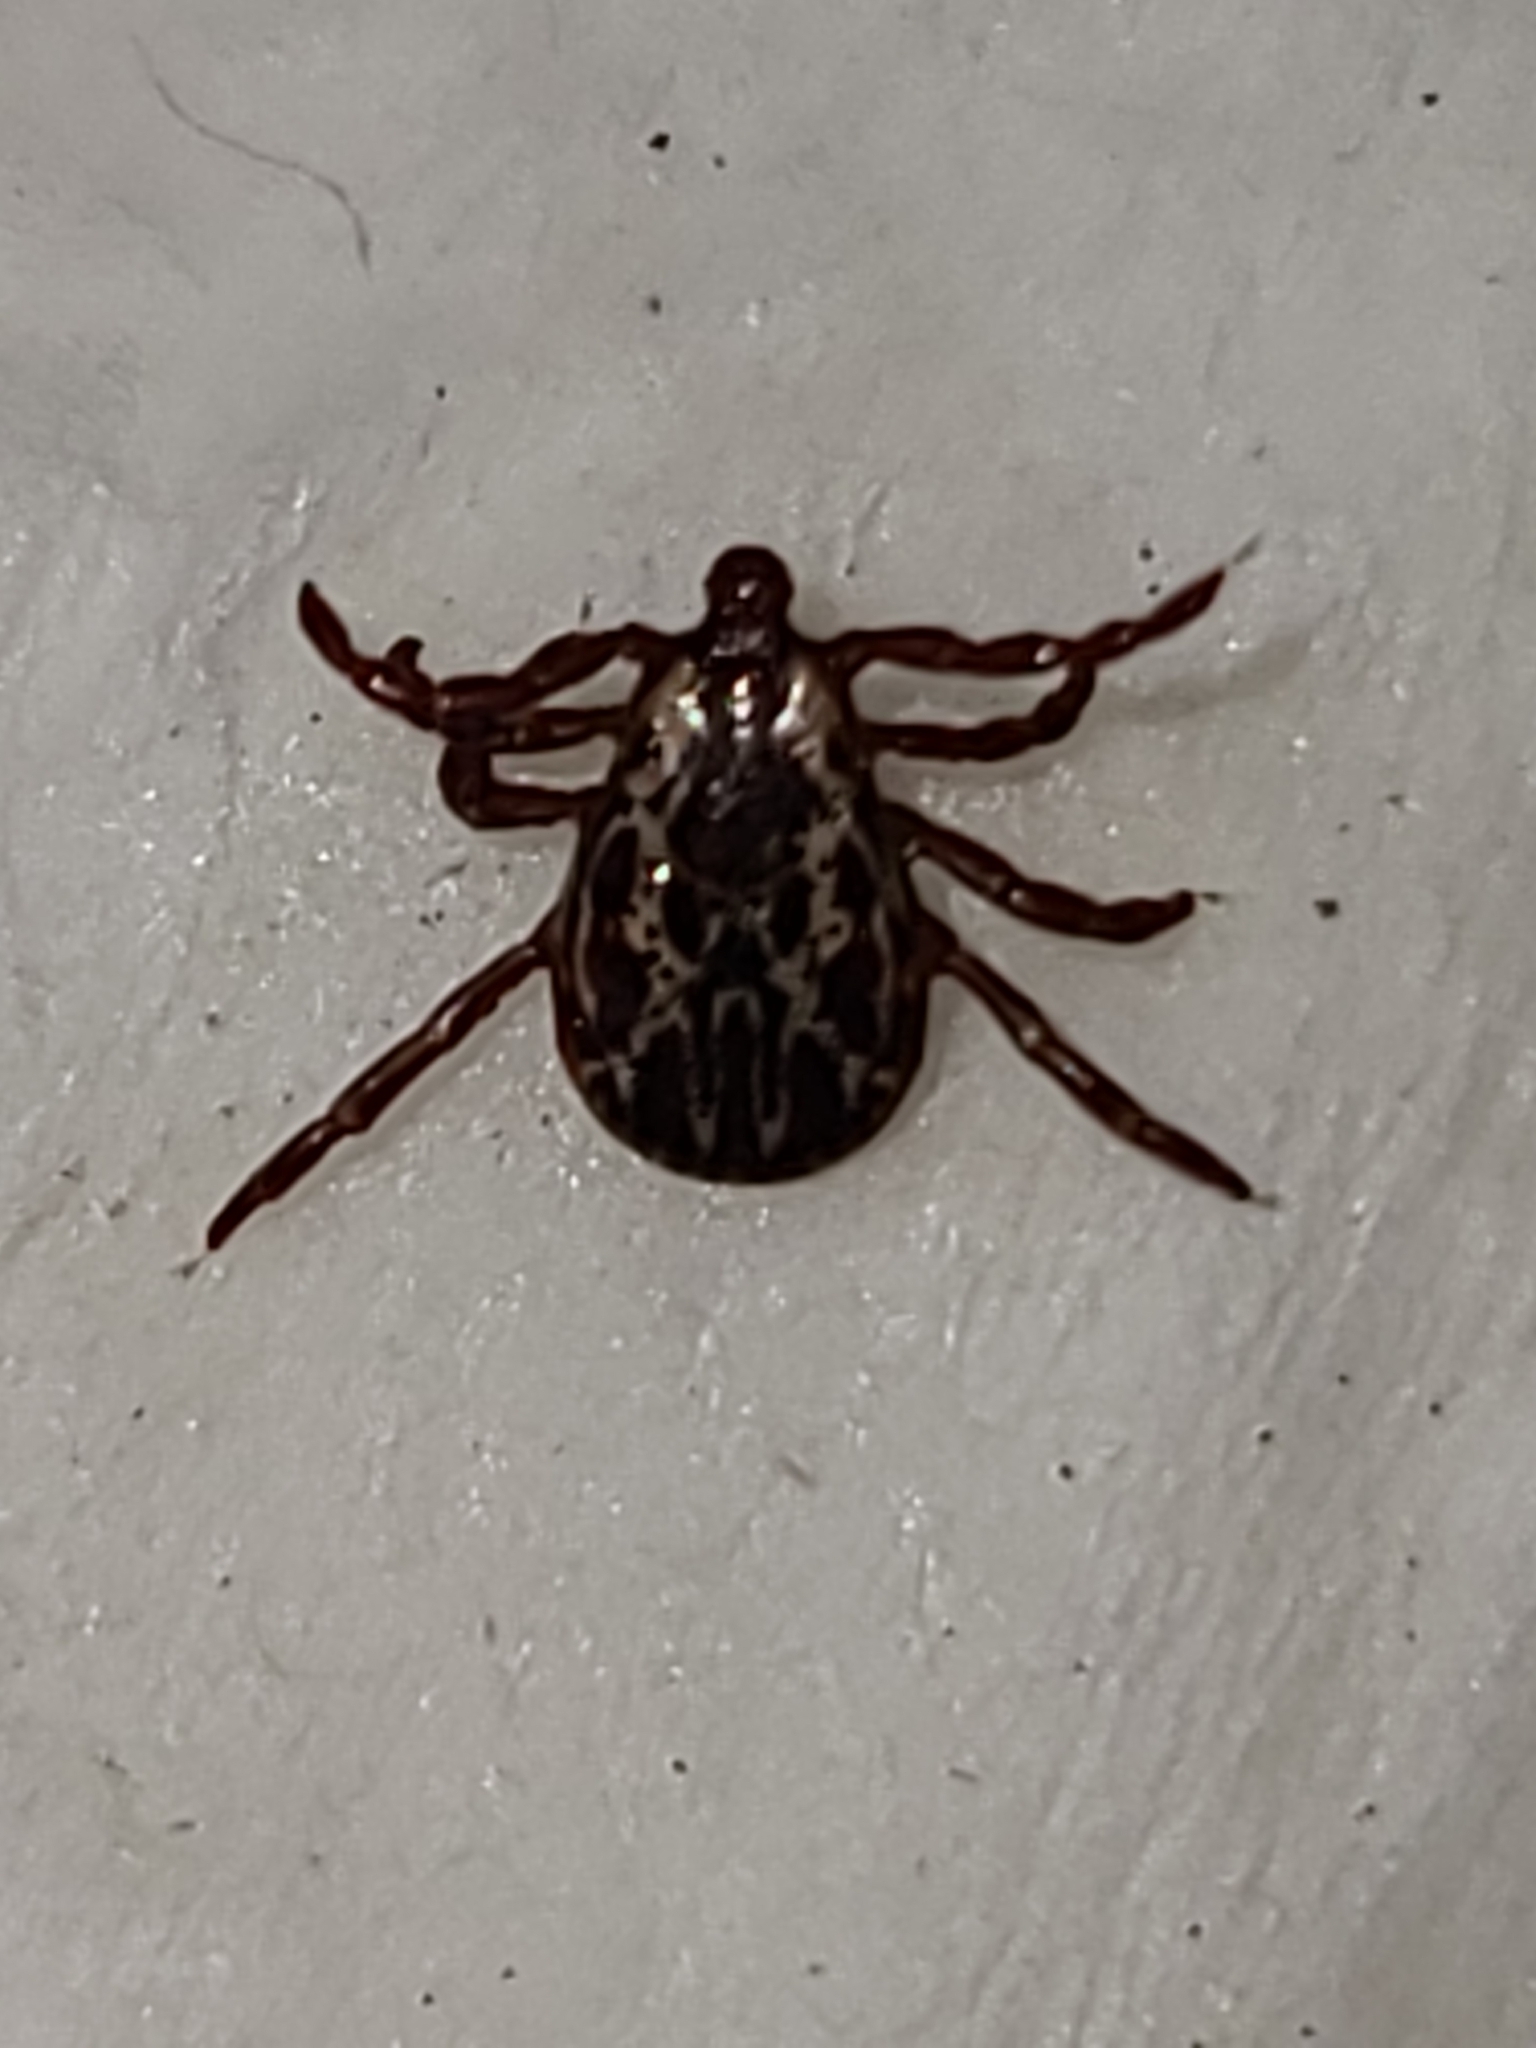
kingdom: Animalia
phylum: Arthropoda
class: Arachnida
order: Ixodida
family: Ixodidae
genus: Dermacentor
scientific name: Dermacentor variabilis
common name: American dog tick
